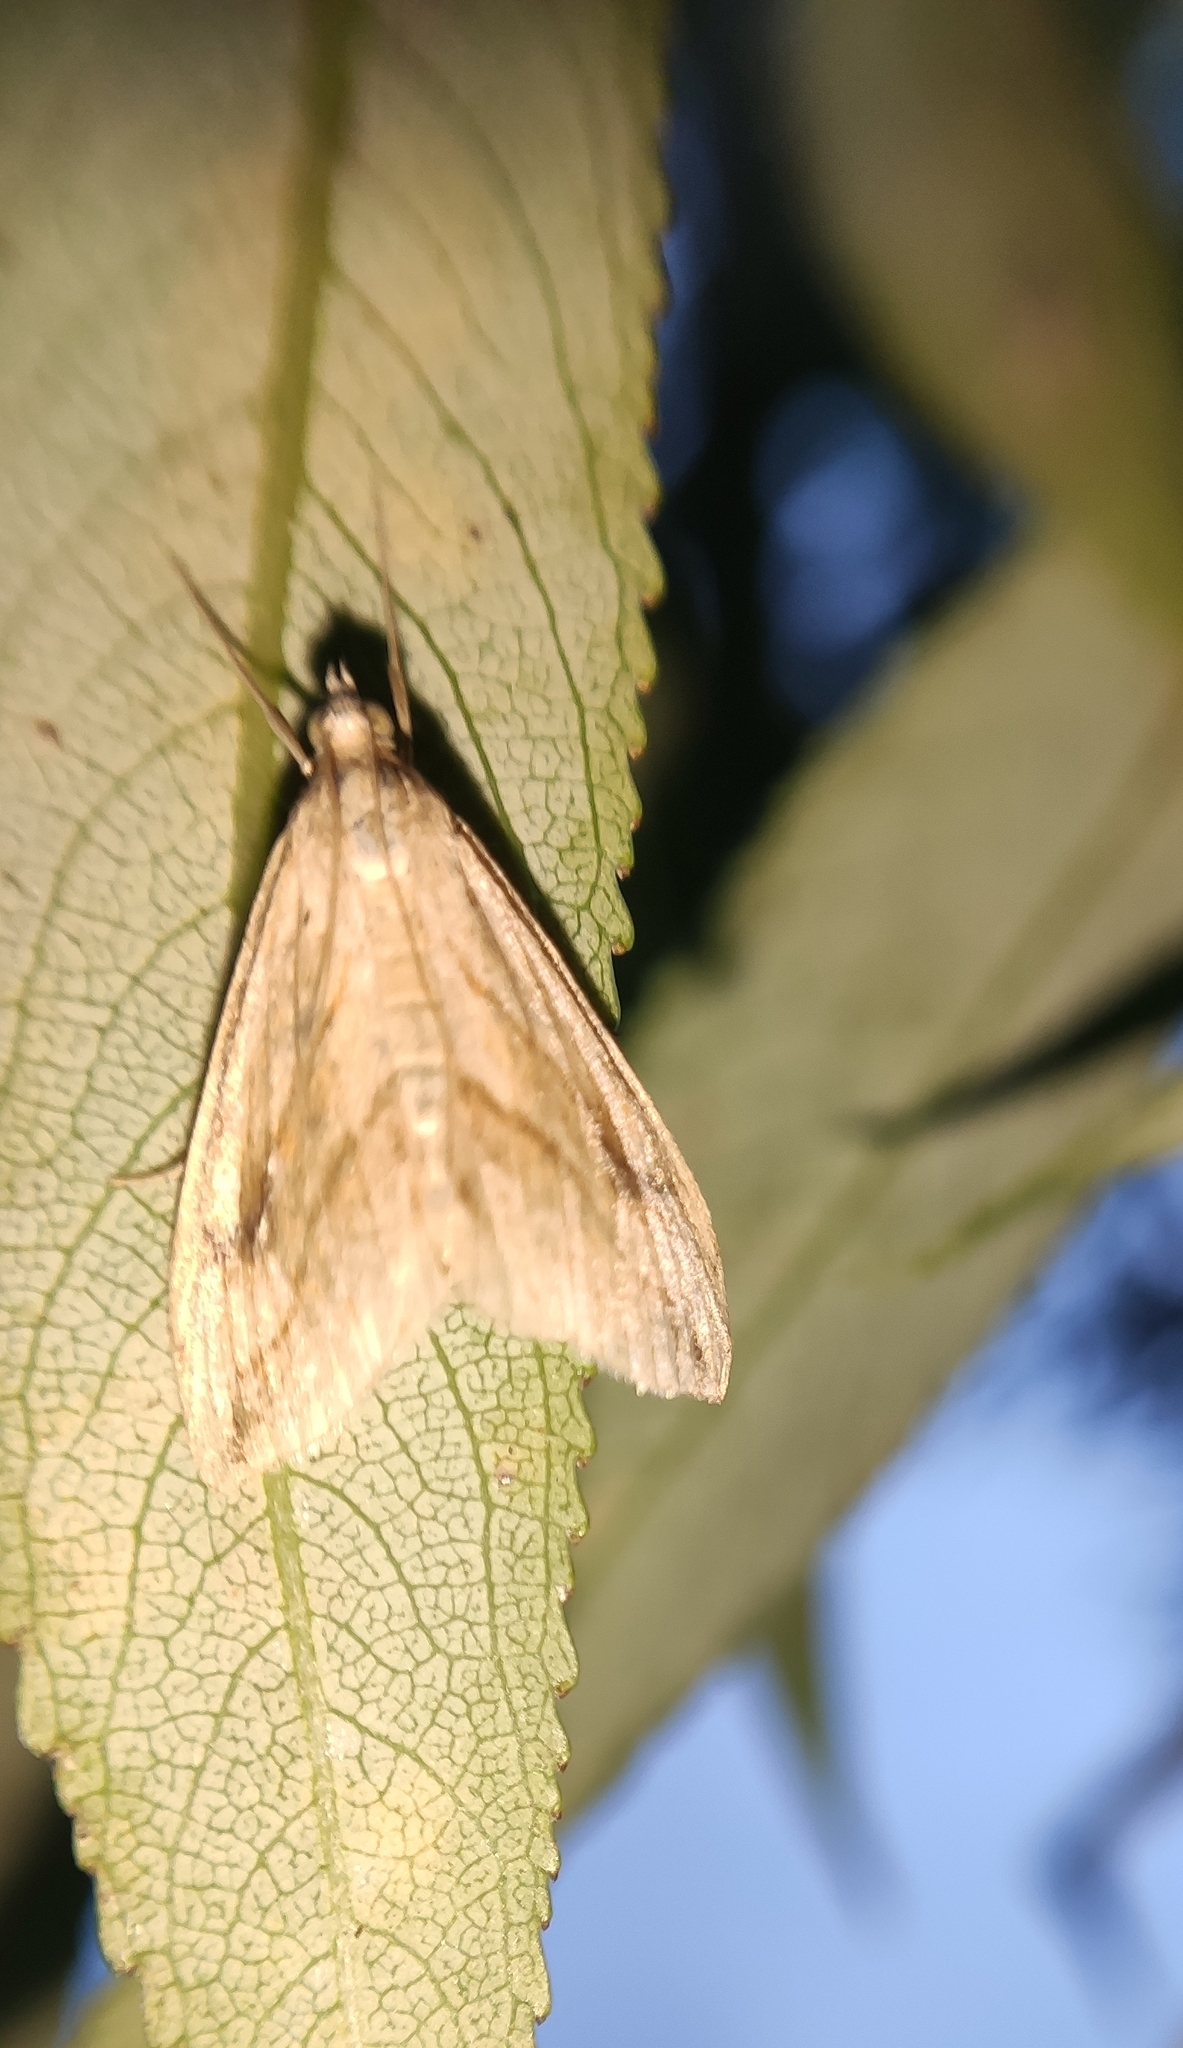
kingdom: Animalia
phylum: Arthropoda
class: Insecta
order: Lepidoptera
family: Crambidae
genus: Evergestis
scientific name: Evergestis forficalis
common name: Garden pebble
